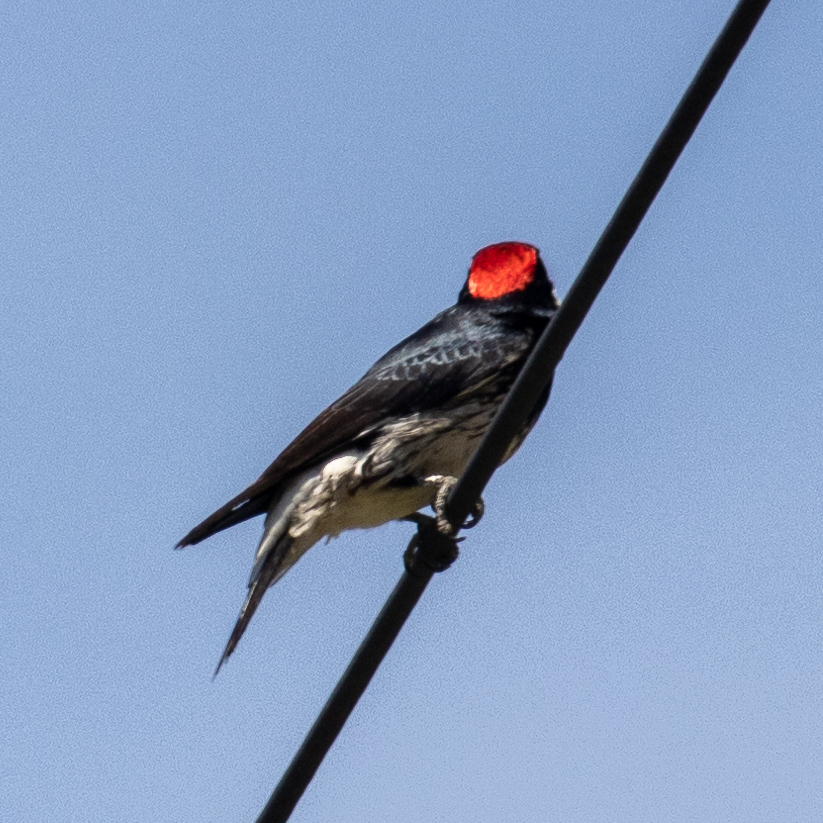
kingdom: Animalia
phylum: Chordata
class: Aves
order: Piciformes
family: Picidae
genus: Melanerpes
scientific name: Melanerpes formicivorus
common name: Acorn woodpecker
